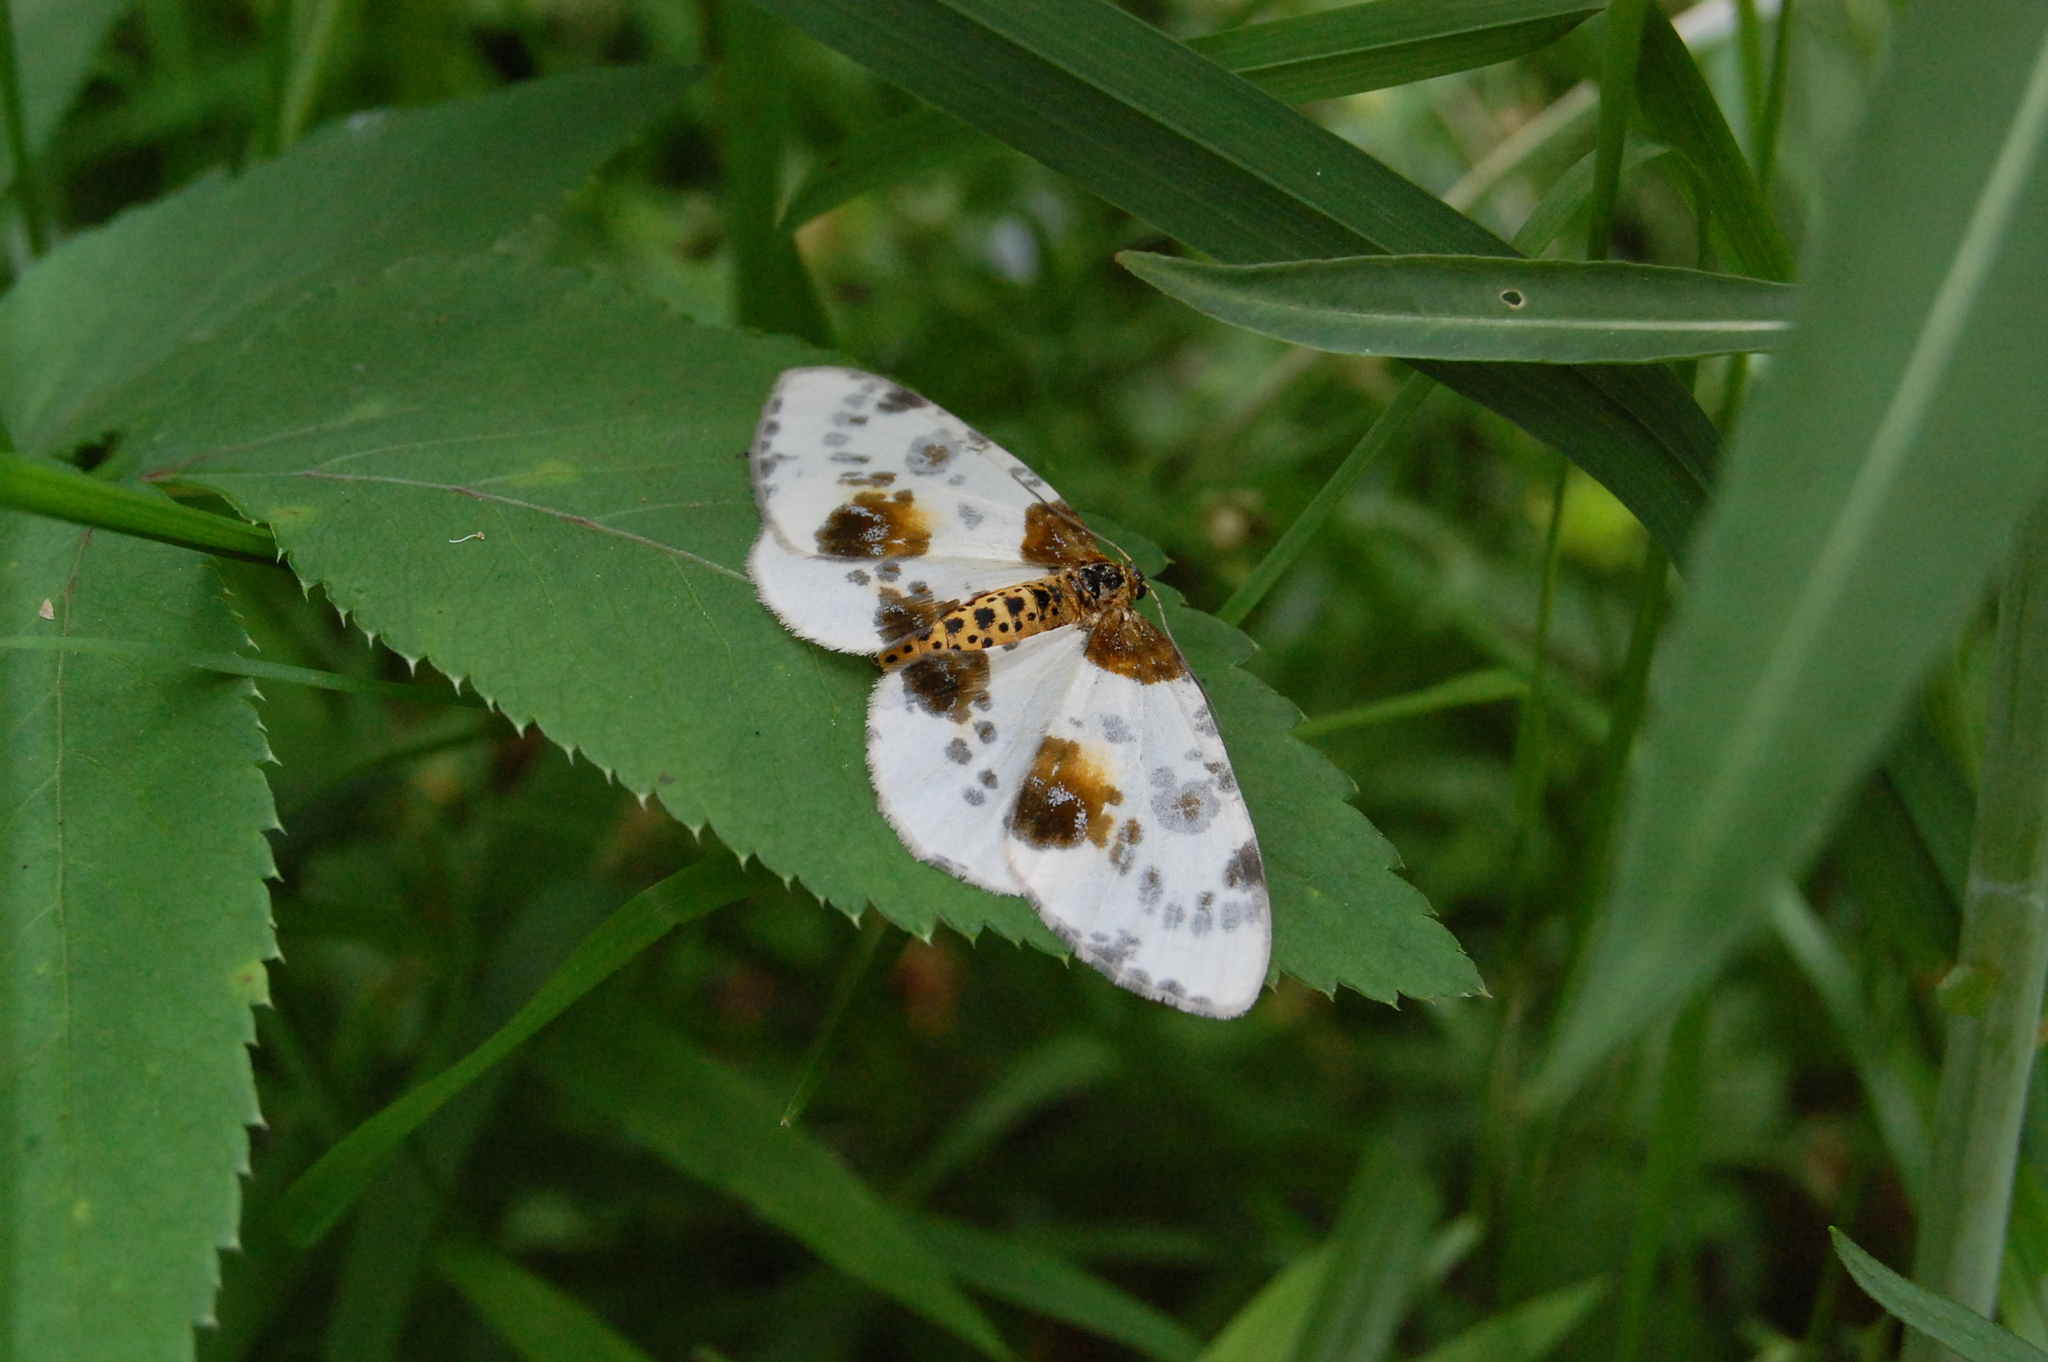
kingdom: Animalia
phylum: Arthropoda
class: Insecta
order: Lepidoptera
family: Geometridae
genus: Abraxas
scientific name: Abraxas sylvata
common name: Clouded magpie
